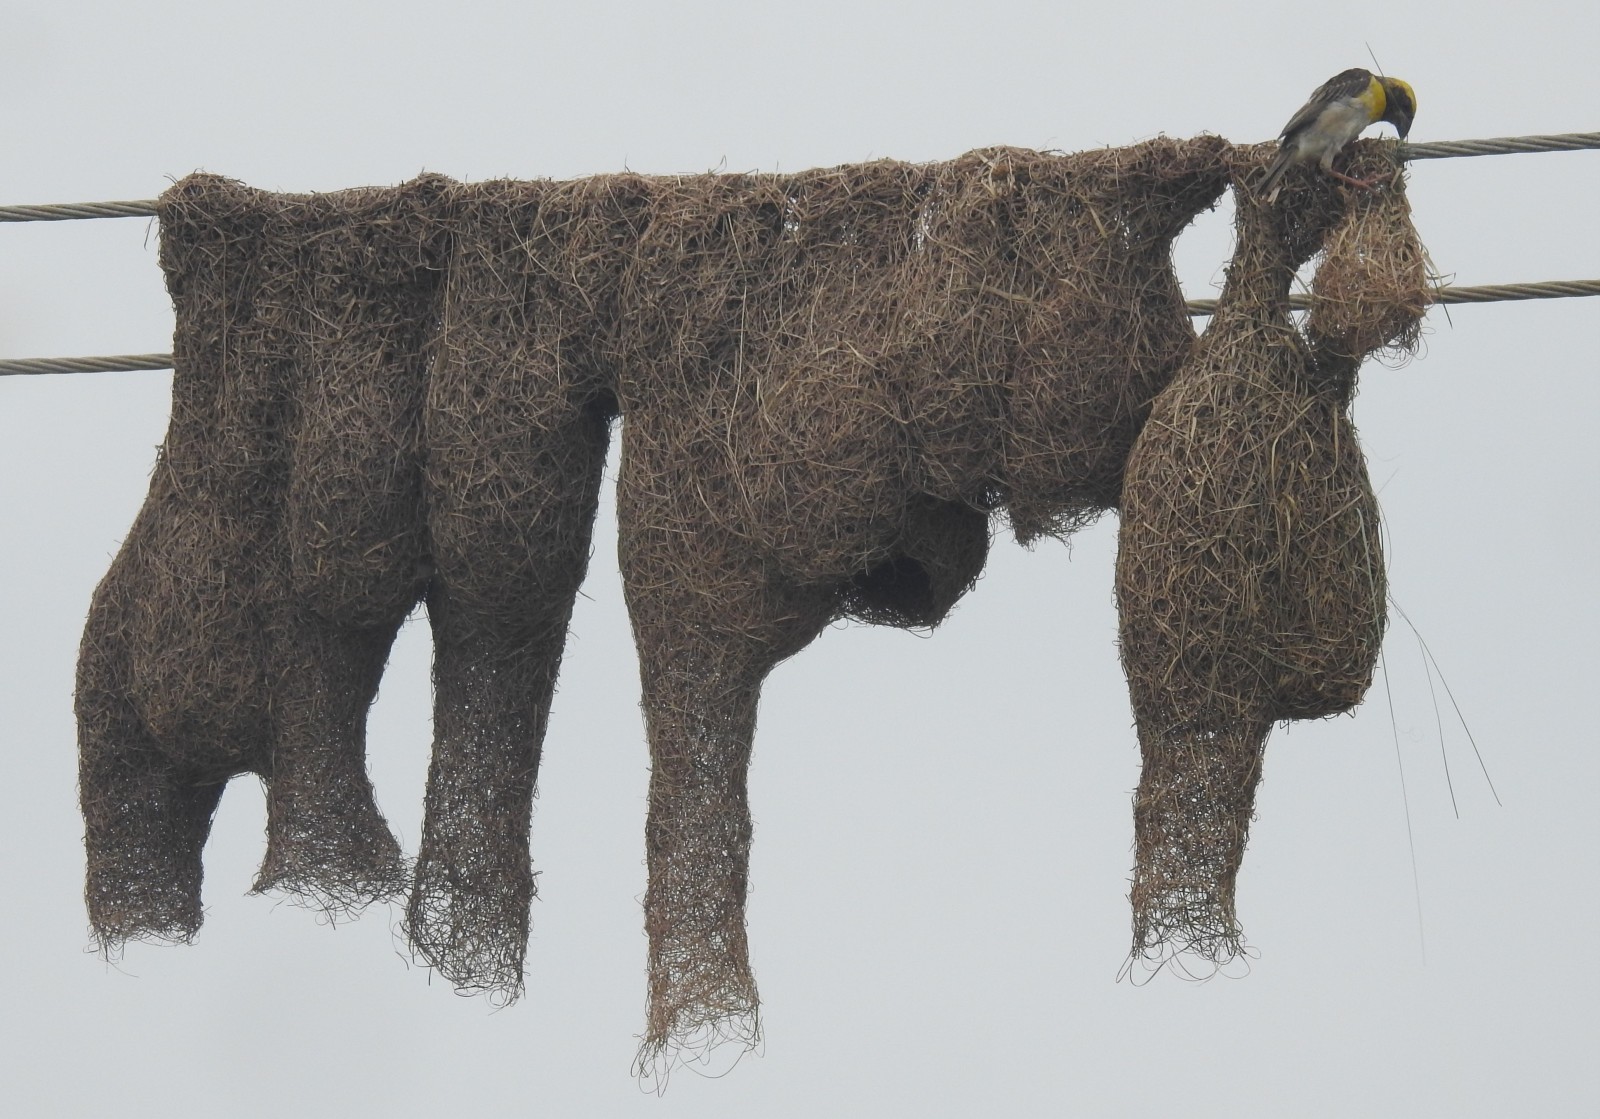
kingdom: Animalia
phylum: Chordata
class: Aves
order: Passeriformes
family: Ploceidae
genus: Ploceus
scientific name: Ploceus philippinus
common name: Baya weaver
